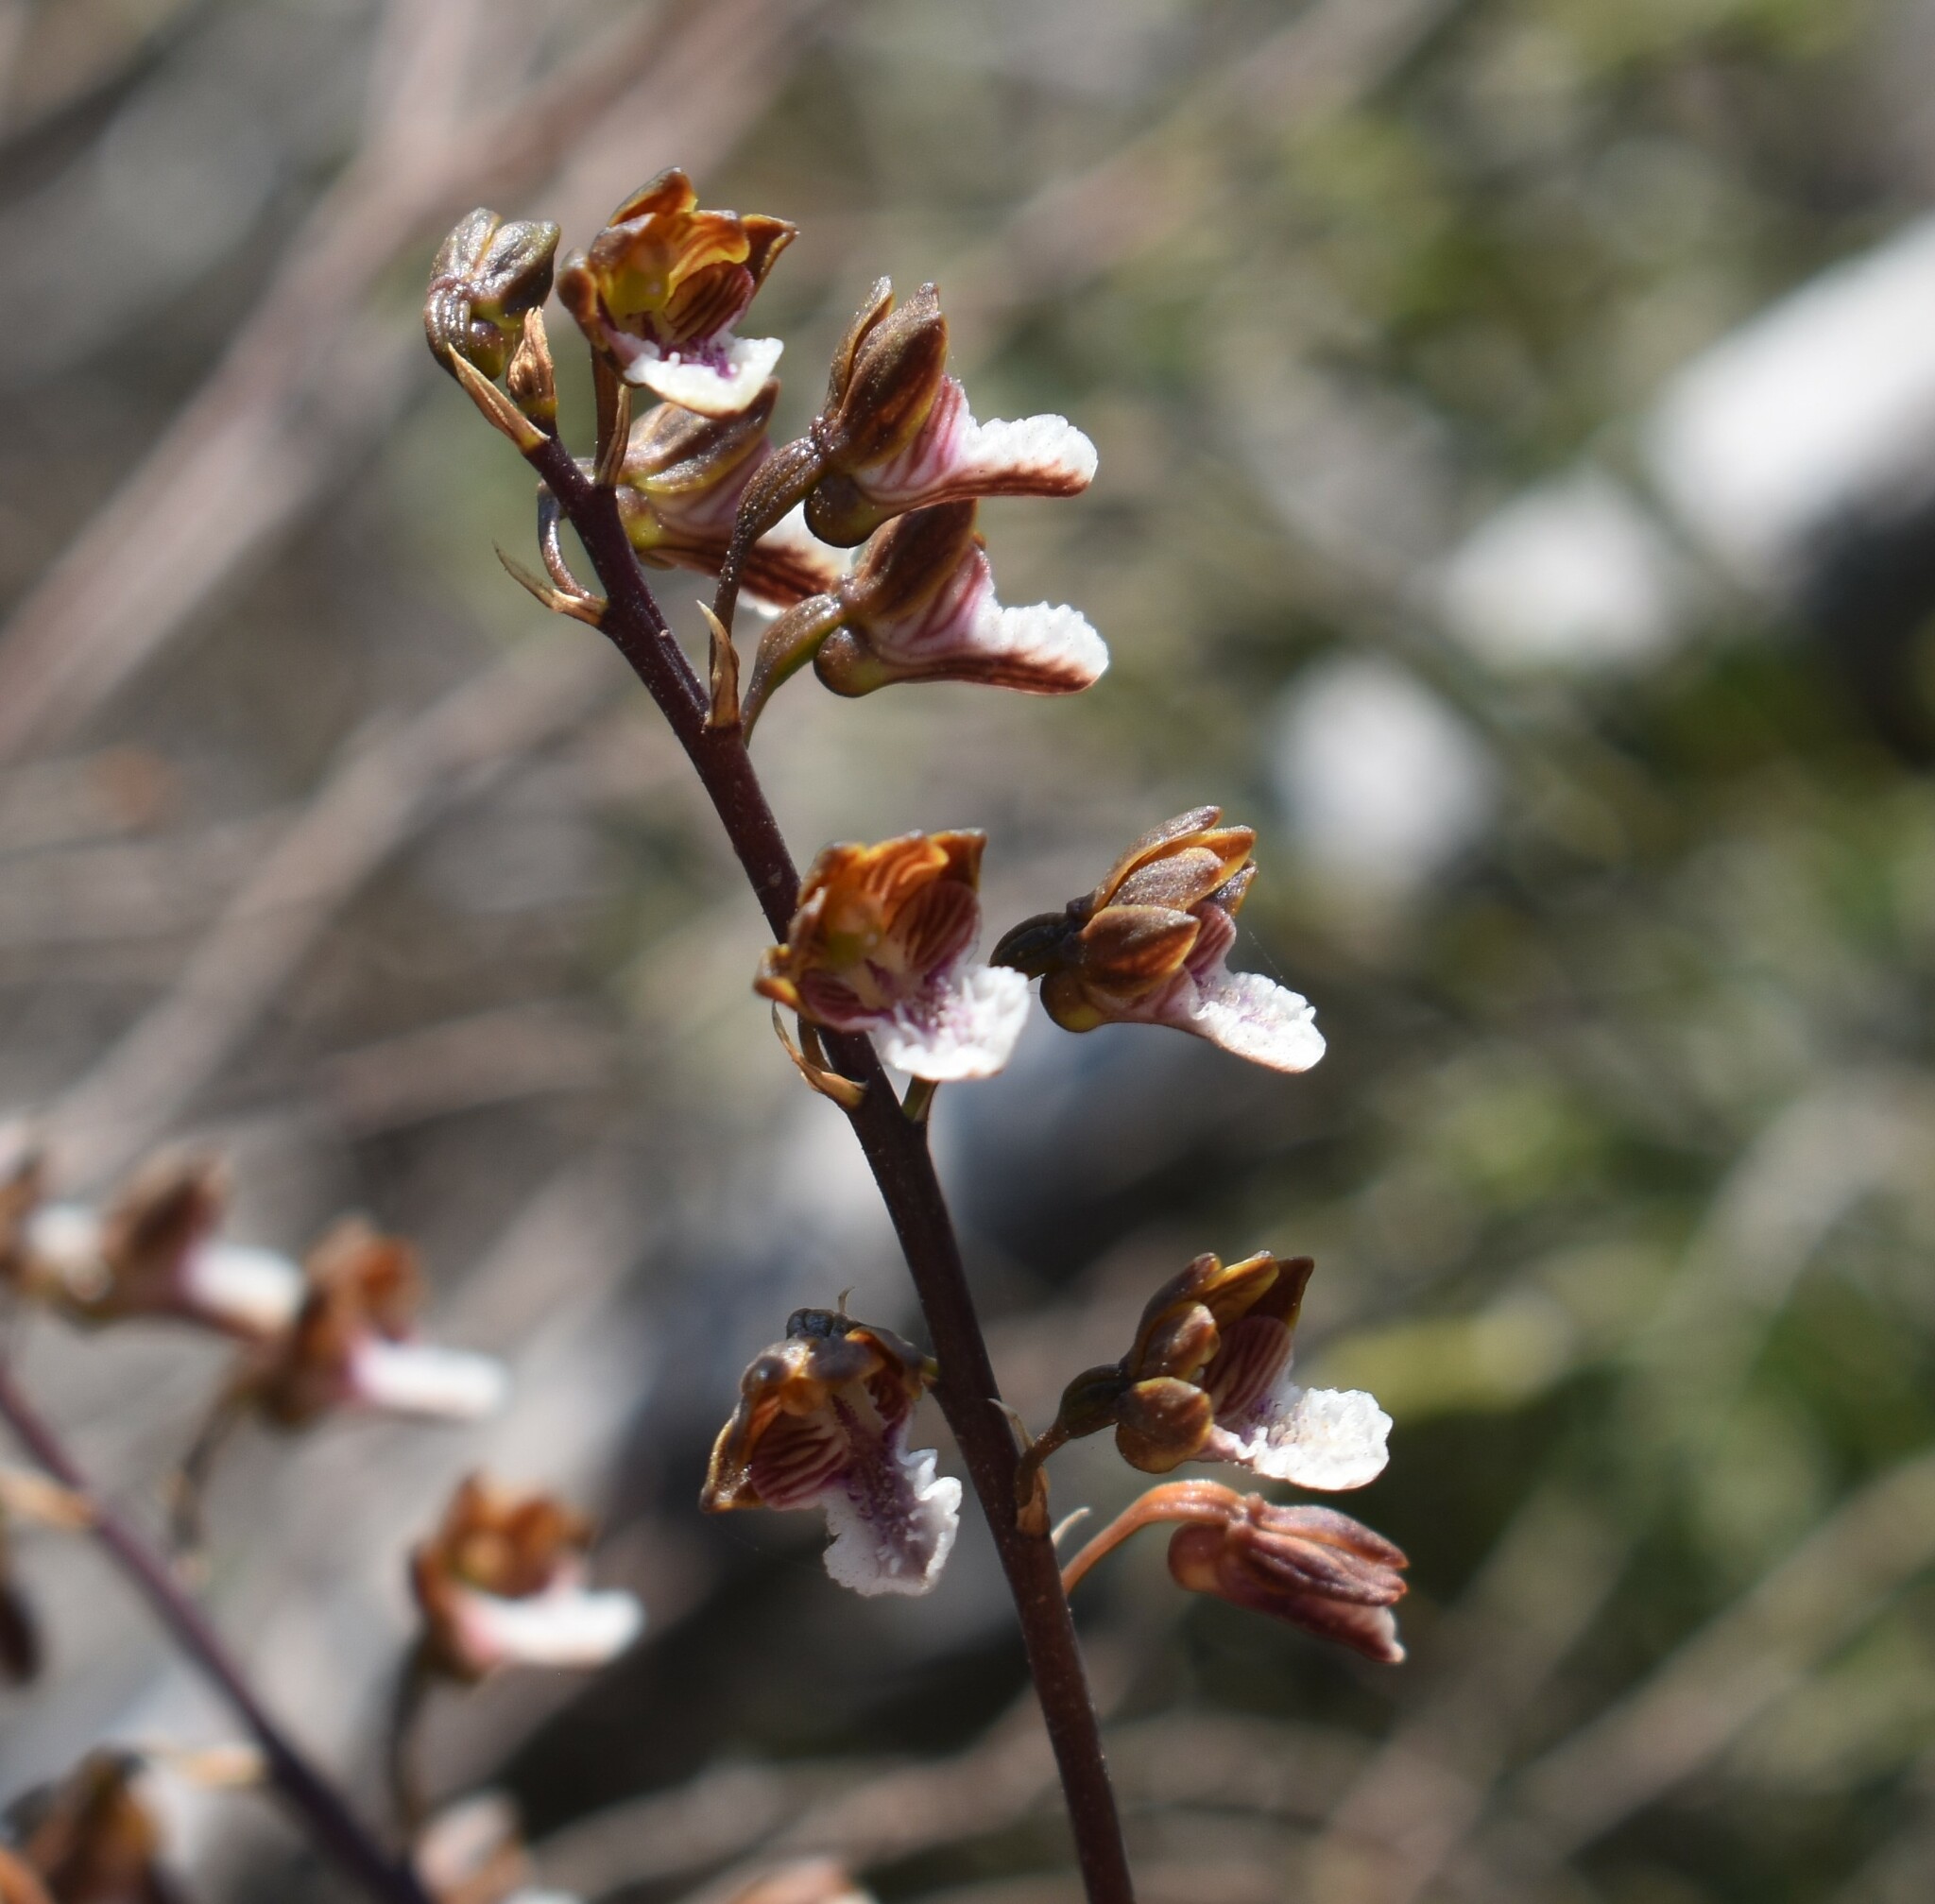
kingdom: Plantae
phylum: Tracheophyta
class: Liliopsida
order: Asparagales
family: Orchidaceae
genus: Eulophia
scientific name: Eulophia micrantha
